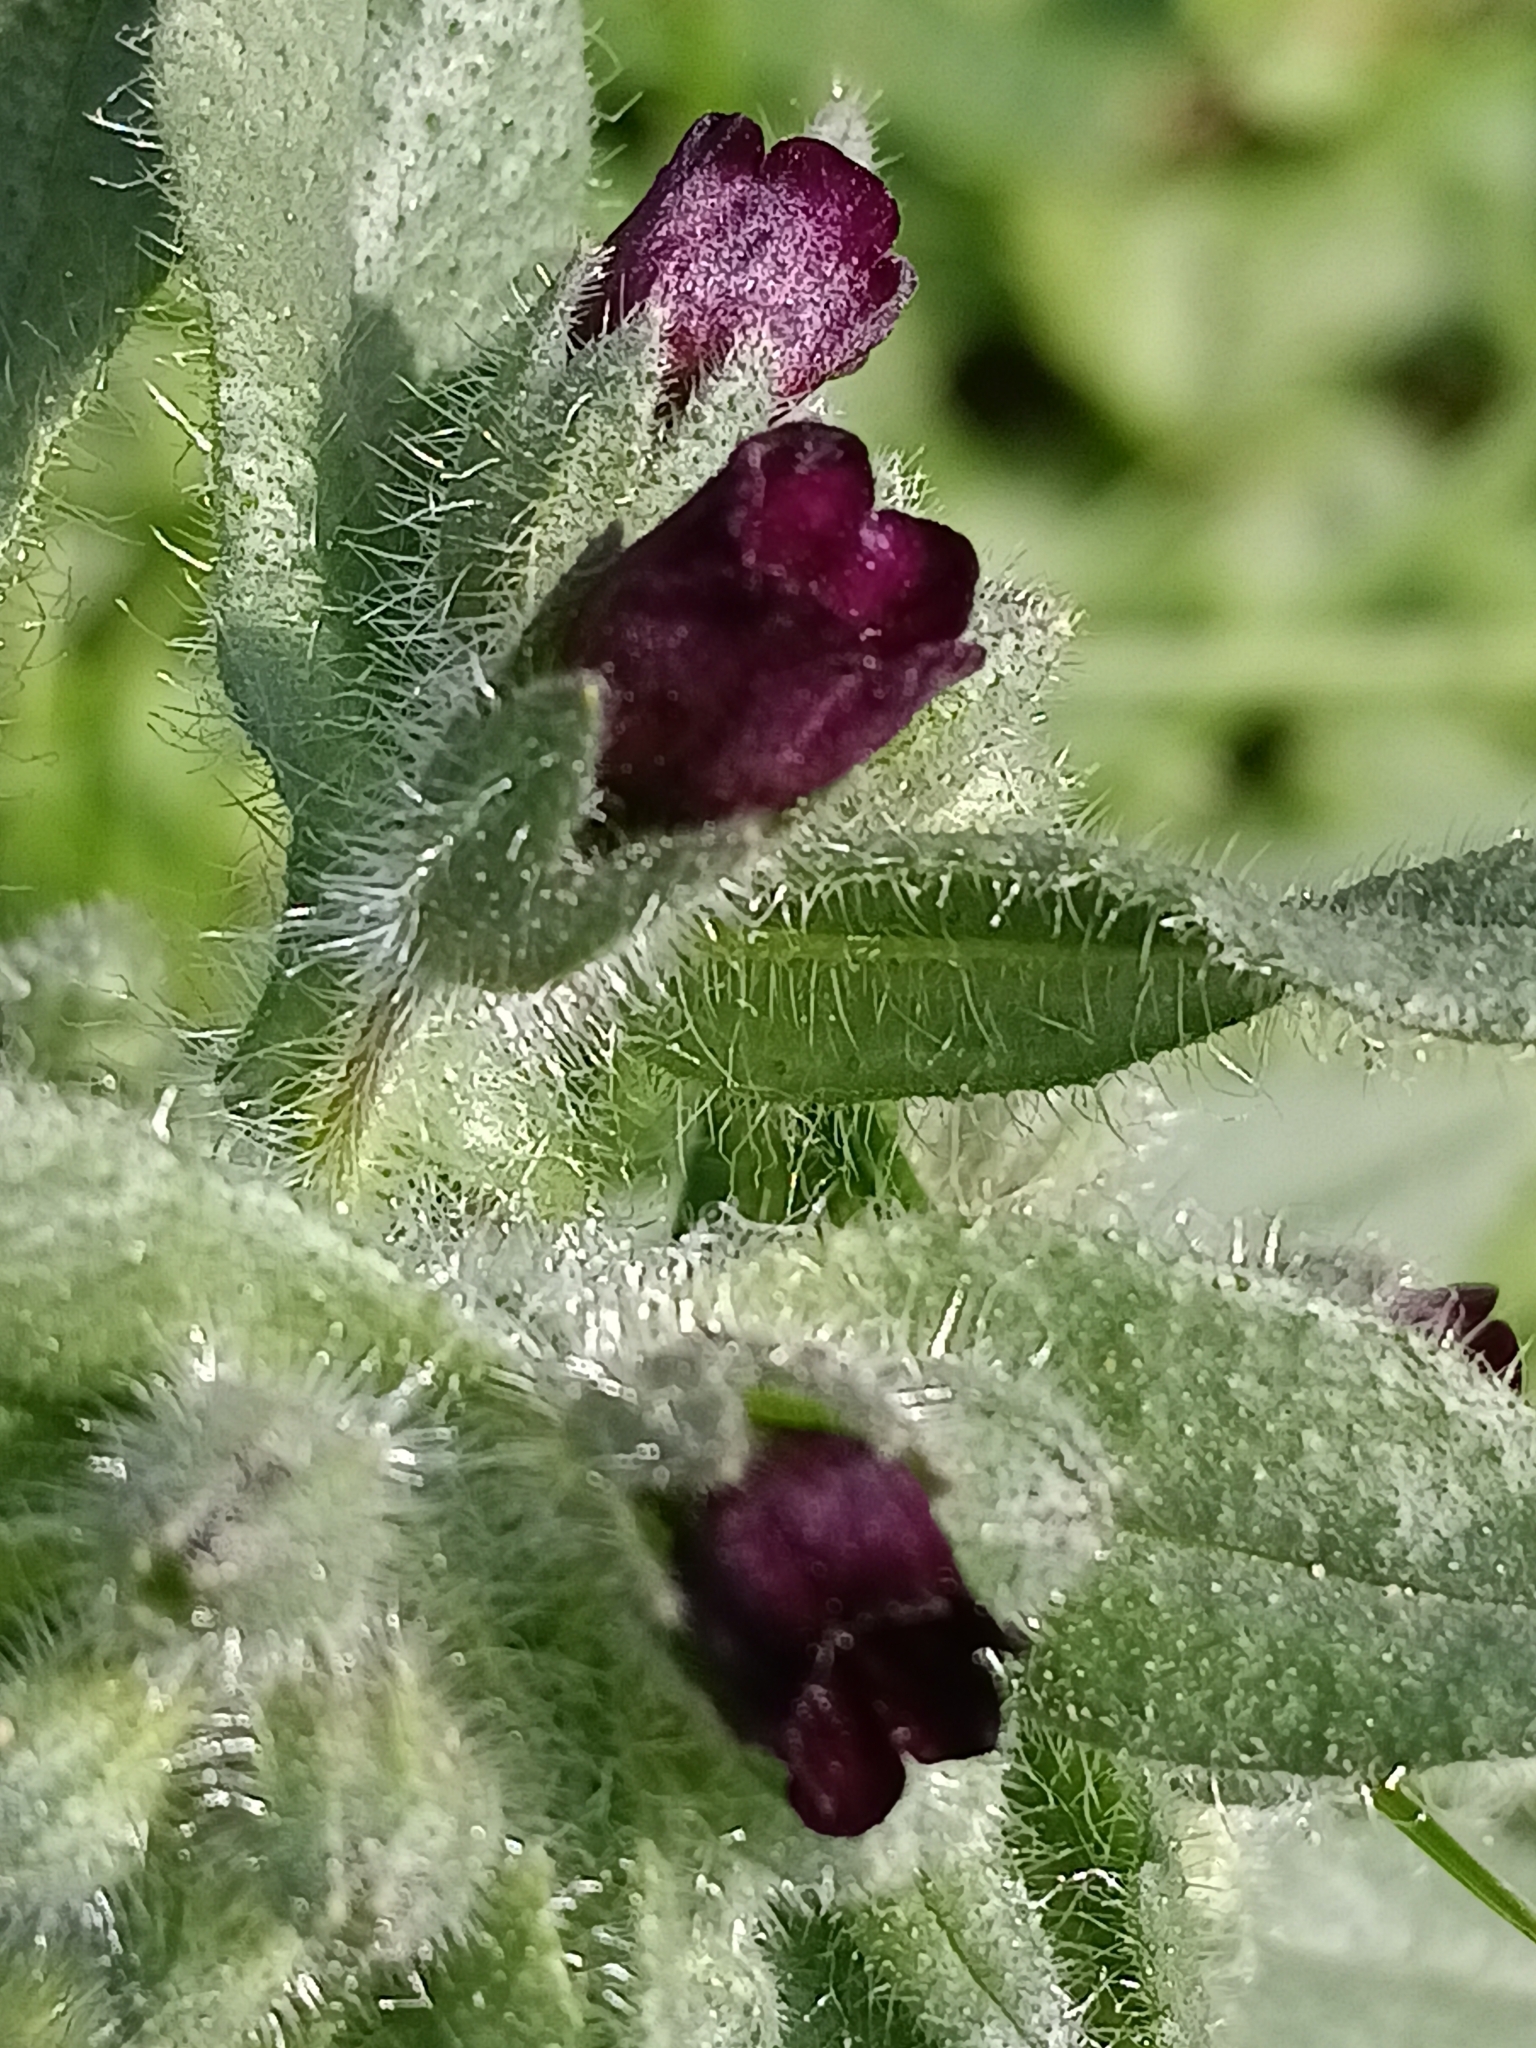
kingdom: Plantae
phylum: Tracheophyta
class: Magnoliopsida
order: Boraginales
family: Boraginaceae
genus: Nonea
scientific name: Nonea pulla
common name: Brown nonea
